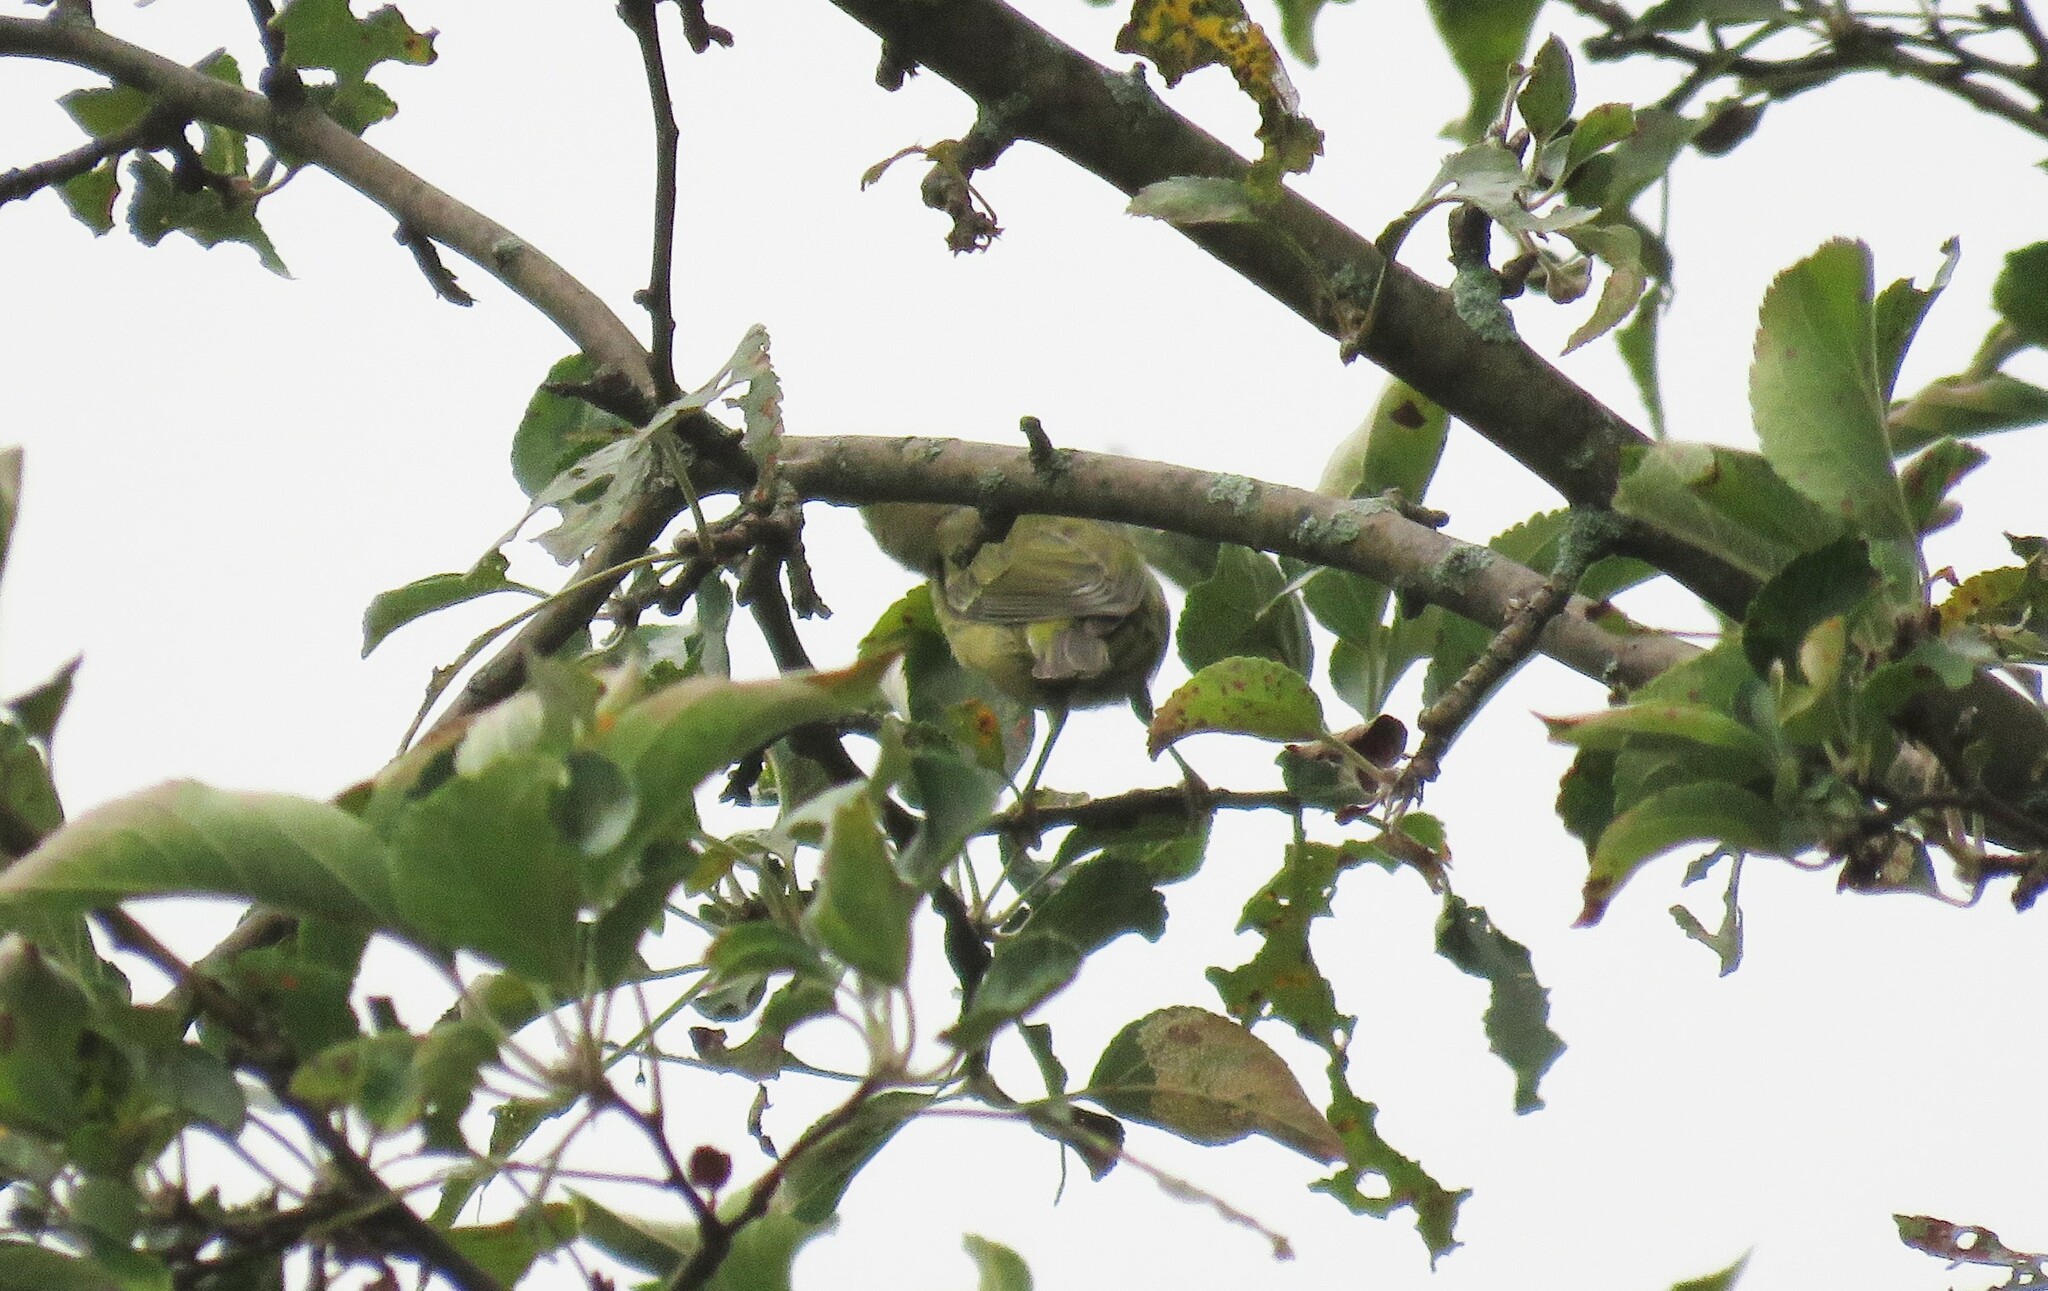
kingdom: Animalia
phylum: Chordata
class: Aves
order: Passeriformes
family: Parulidae
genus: Leiothlypis
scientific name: Leiothlypis peregrina
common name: Tennessee warbler
